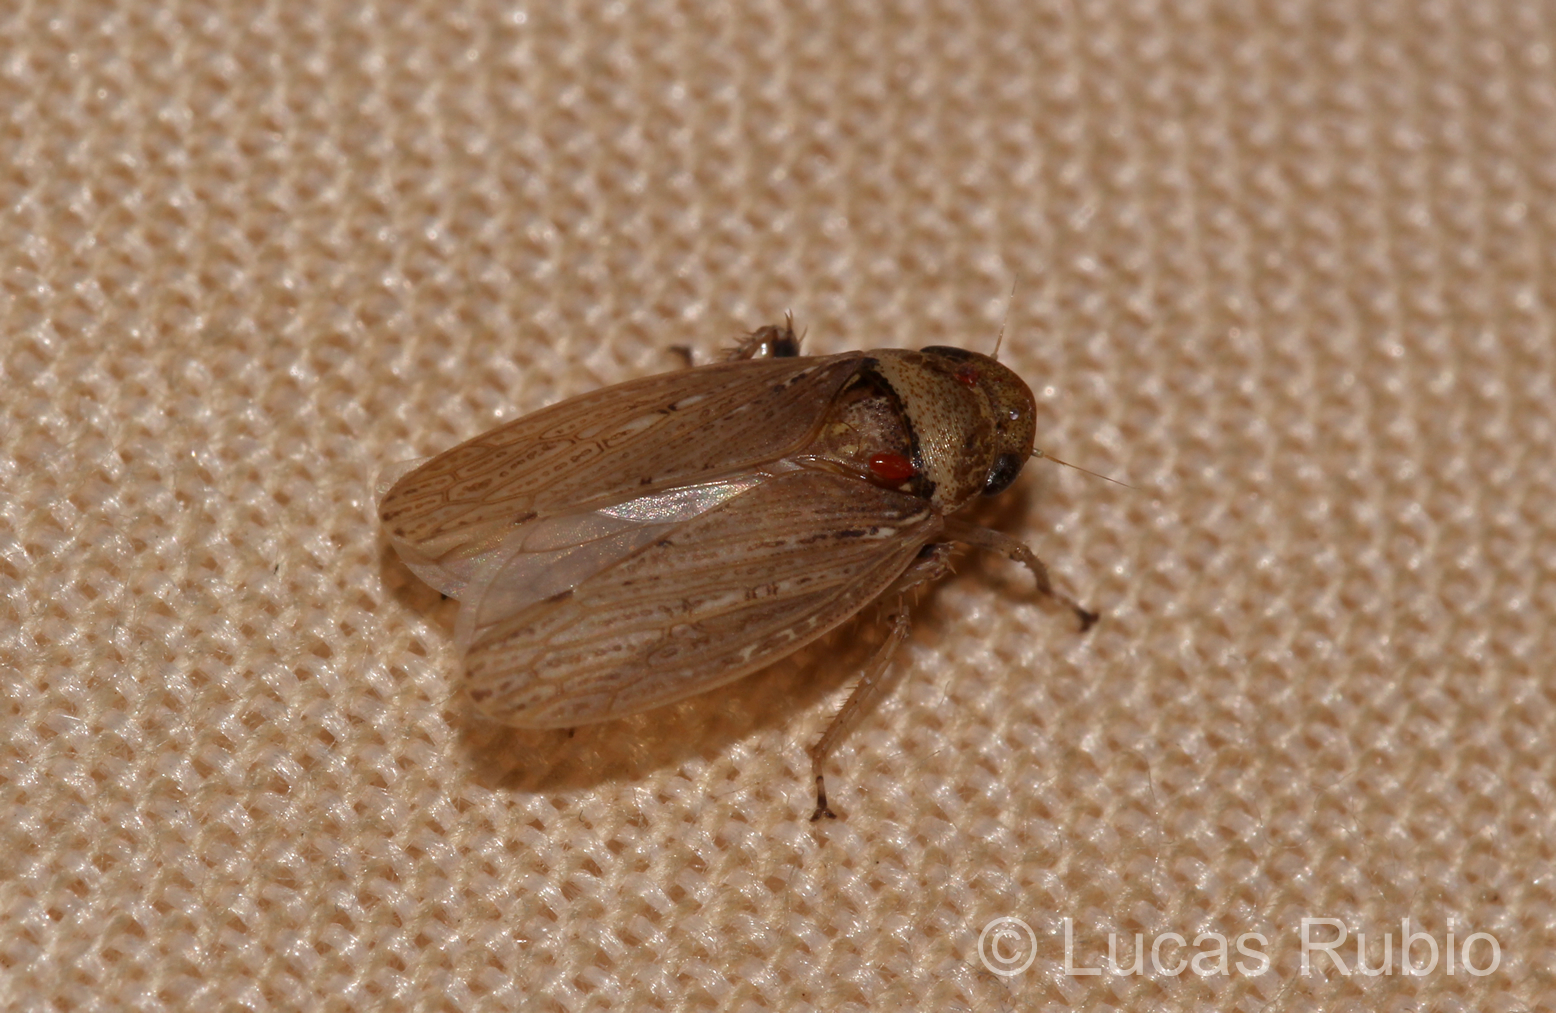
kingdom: Animalia
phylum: Arthropoda
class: Insecta
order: Hemiptera
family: Cicadellidae
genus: Sordana
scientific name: Sordana sordida
